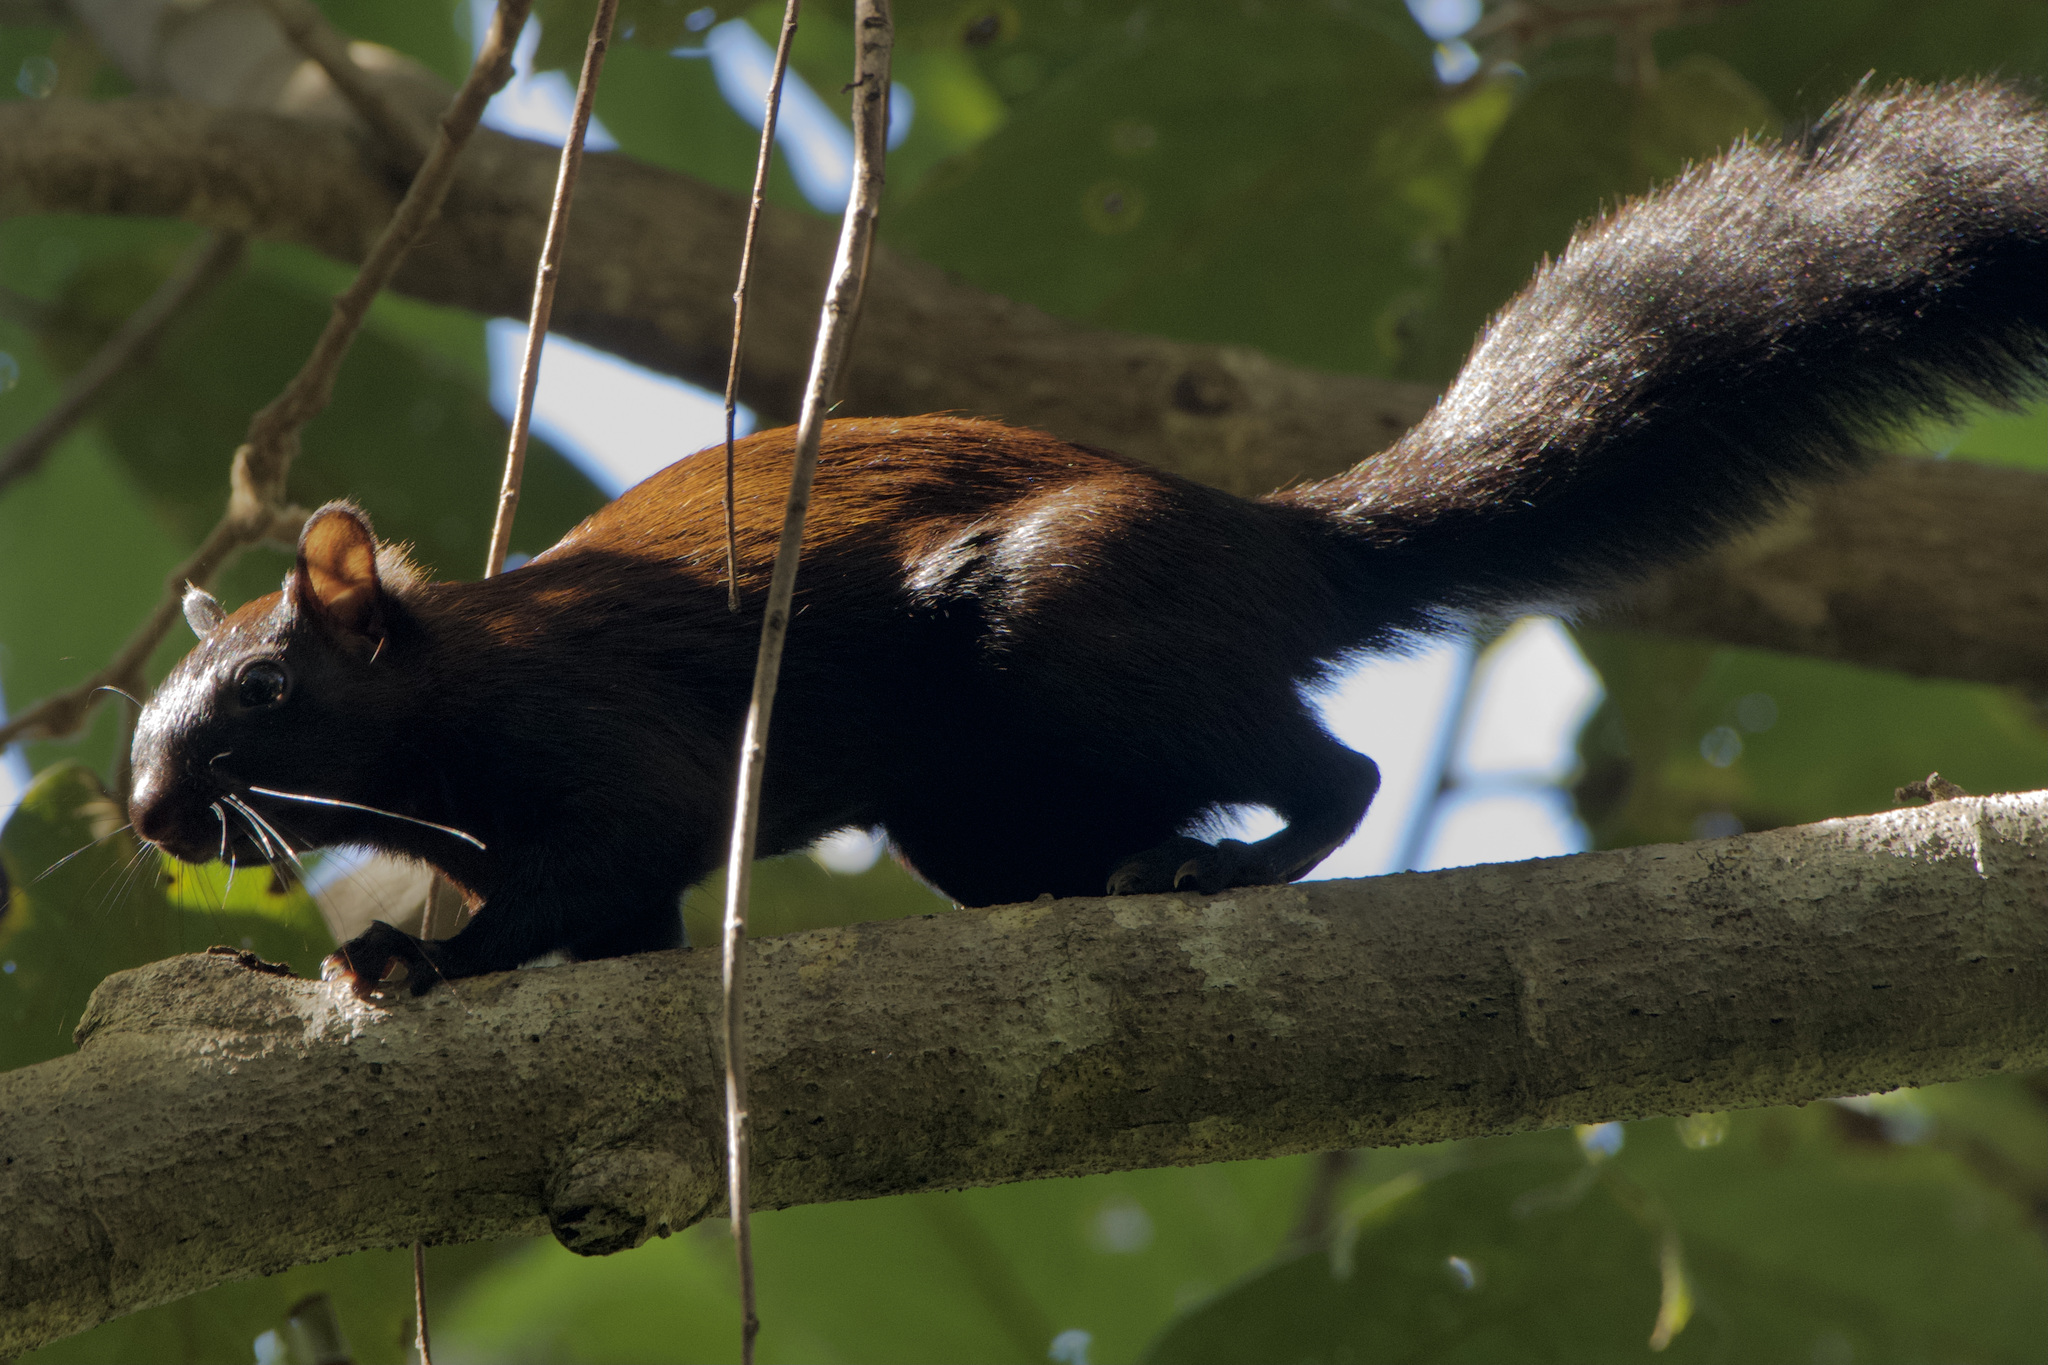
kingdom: Animalia
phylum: Chordata
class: Mammalia
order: Rodentia
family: Sciuridae
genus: Sciurus
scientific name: Sciurus variegatoides
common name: Variegated squirrel
